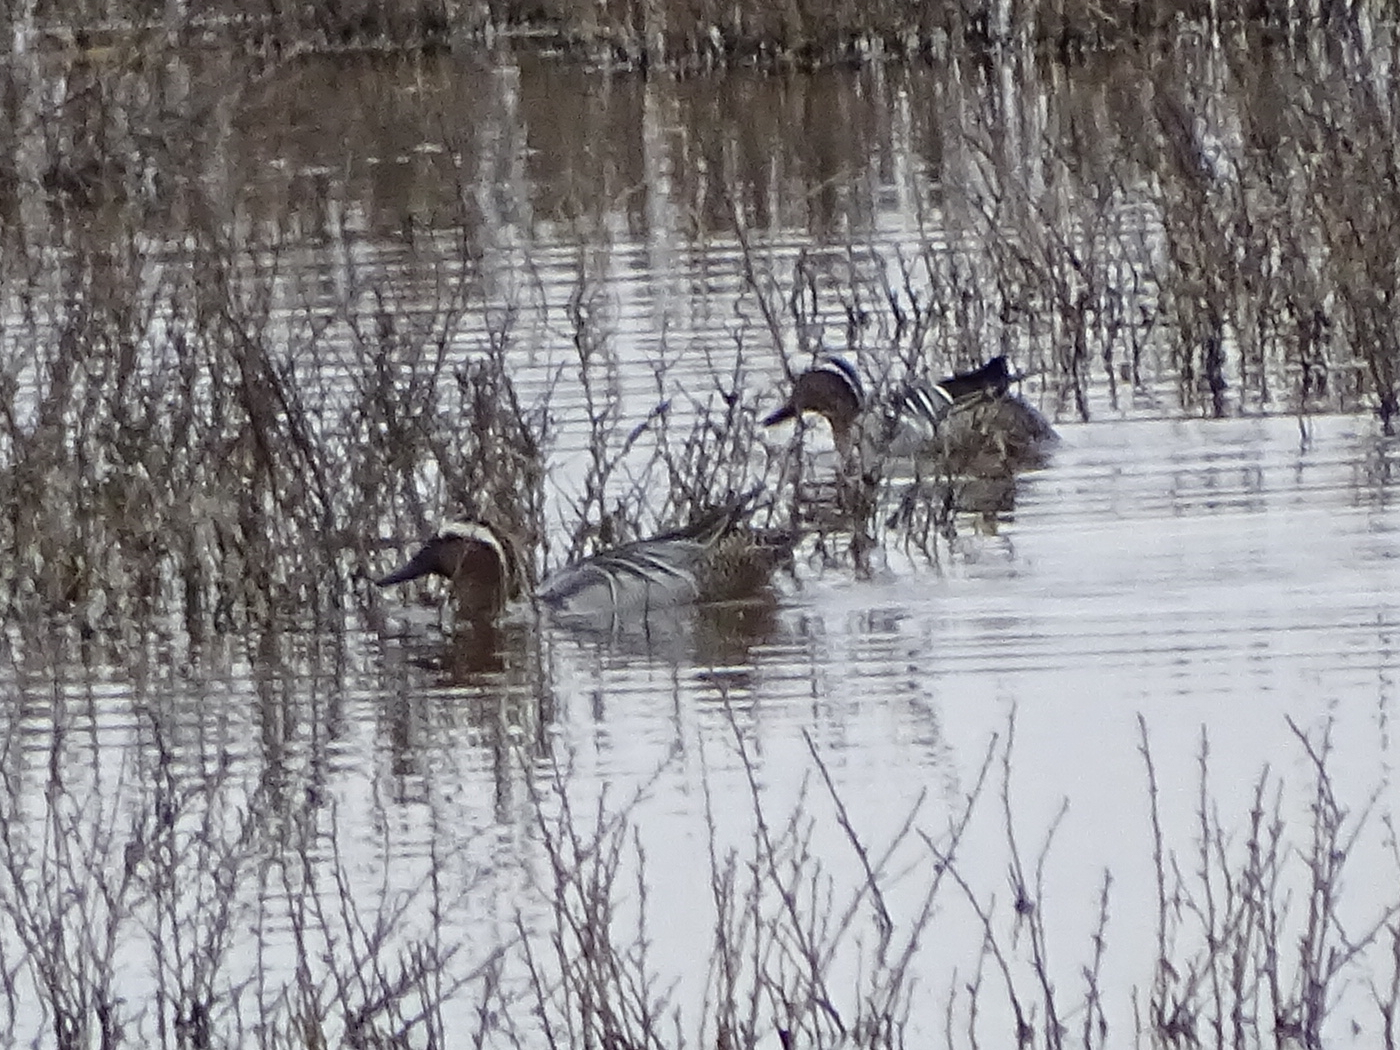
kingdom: Animalia
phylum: Chordata
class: Aves
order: Anseriformes
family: Anatidae
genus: Spatula
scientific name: Spatula querquedula
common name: Garganey
